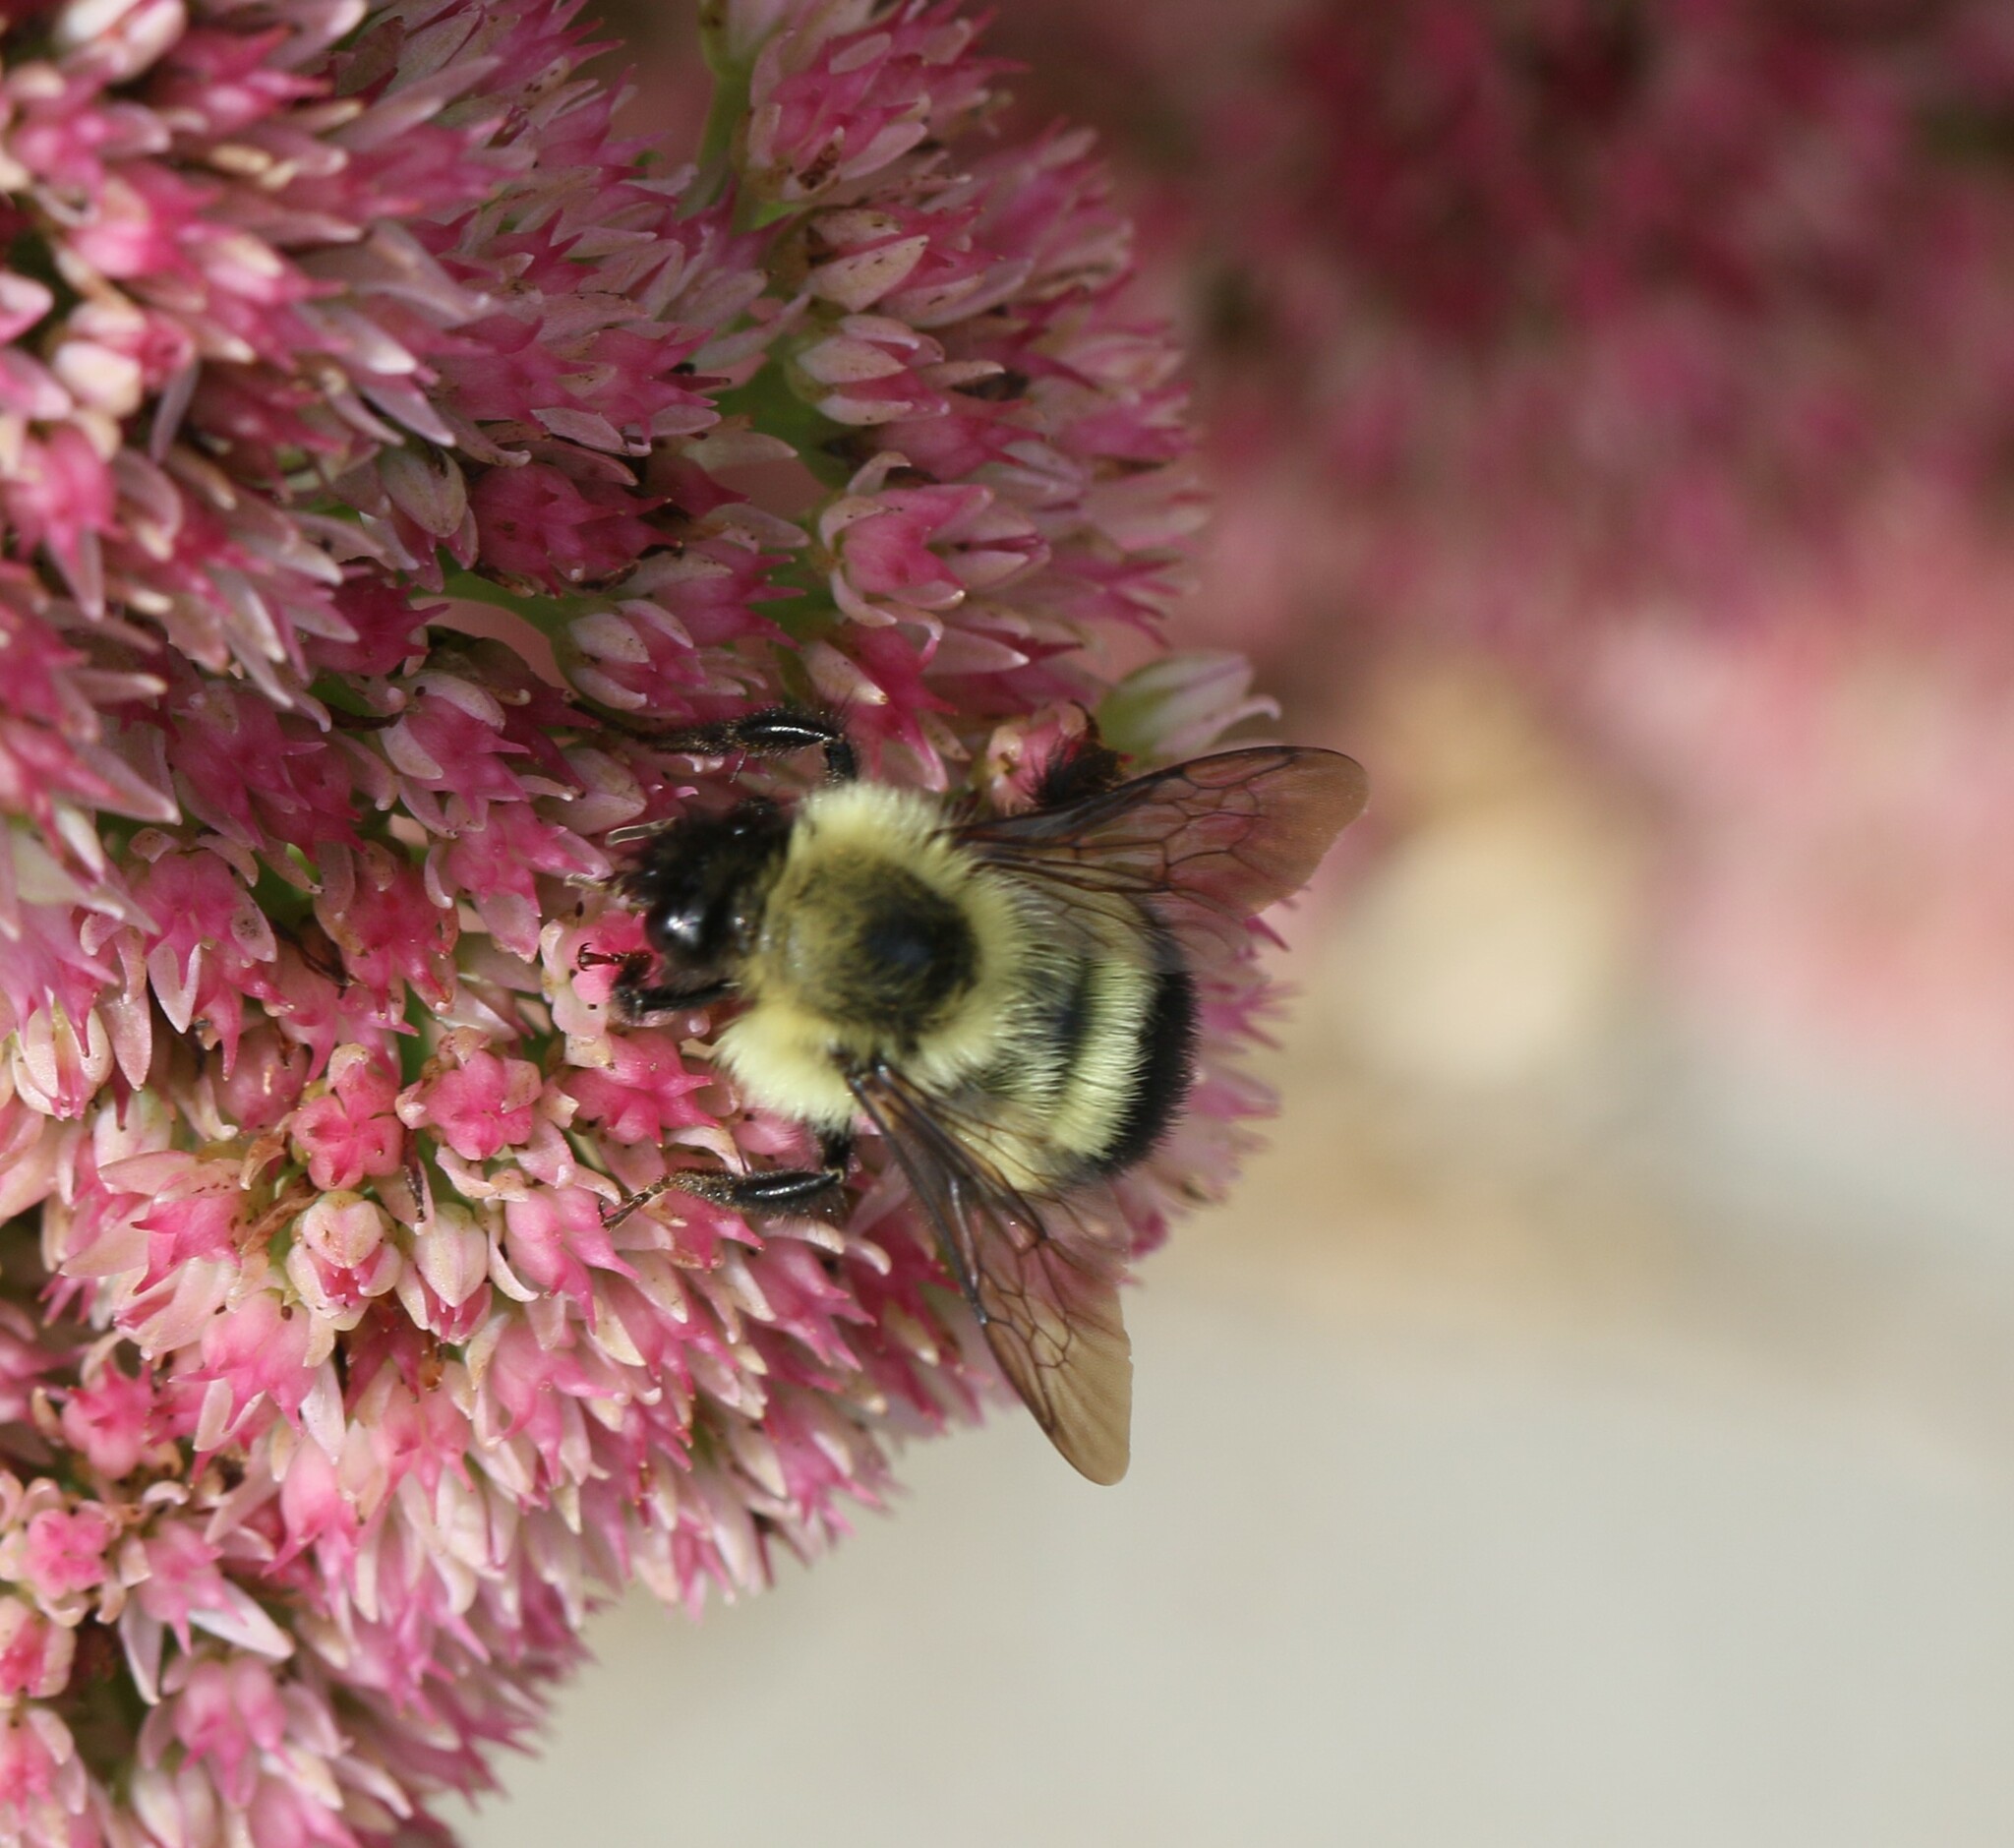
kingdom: Animalia
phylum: Arthropoda
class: Insecta
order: Hymenoptera
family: Apidae
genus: Pyrobombus
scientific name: Pyrobombus
